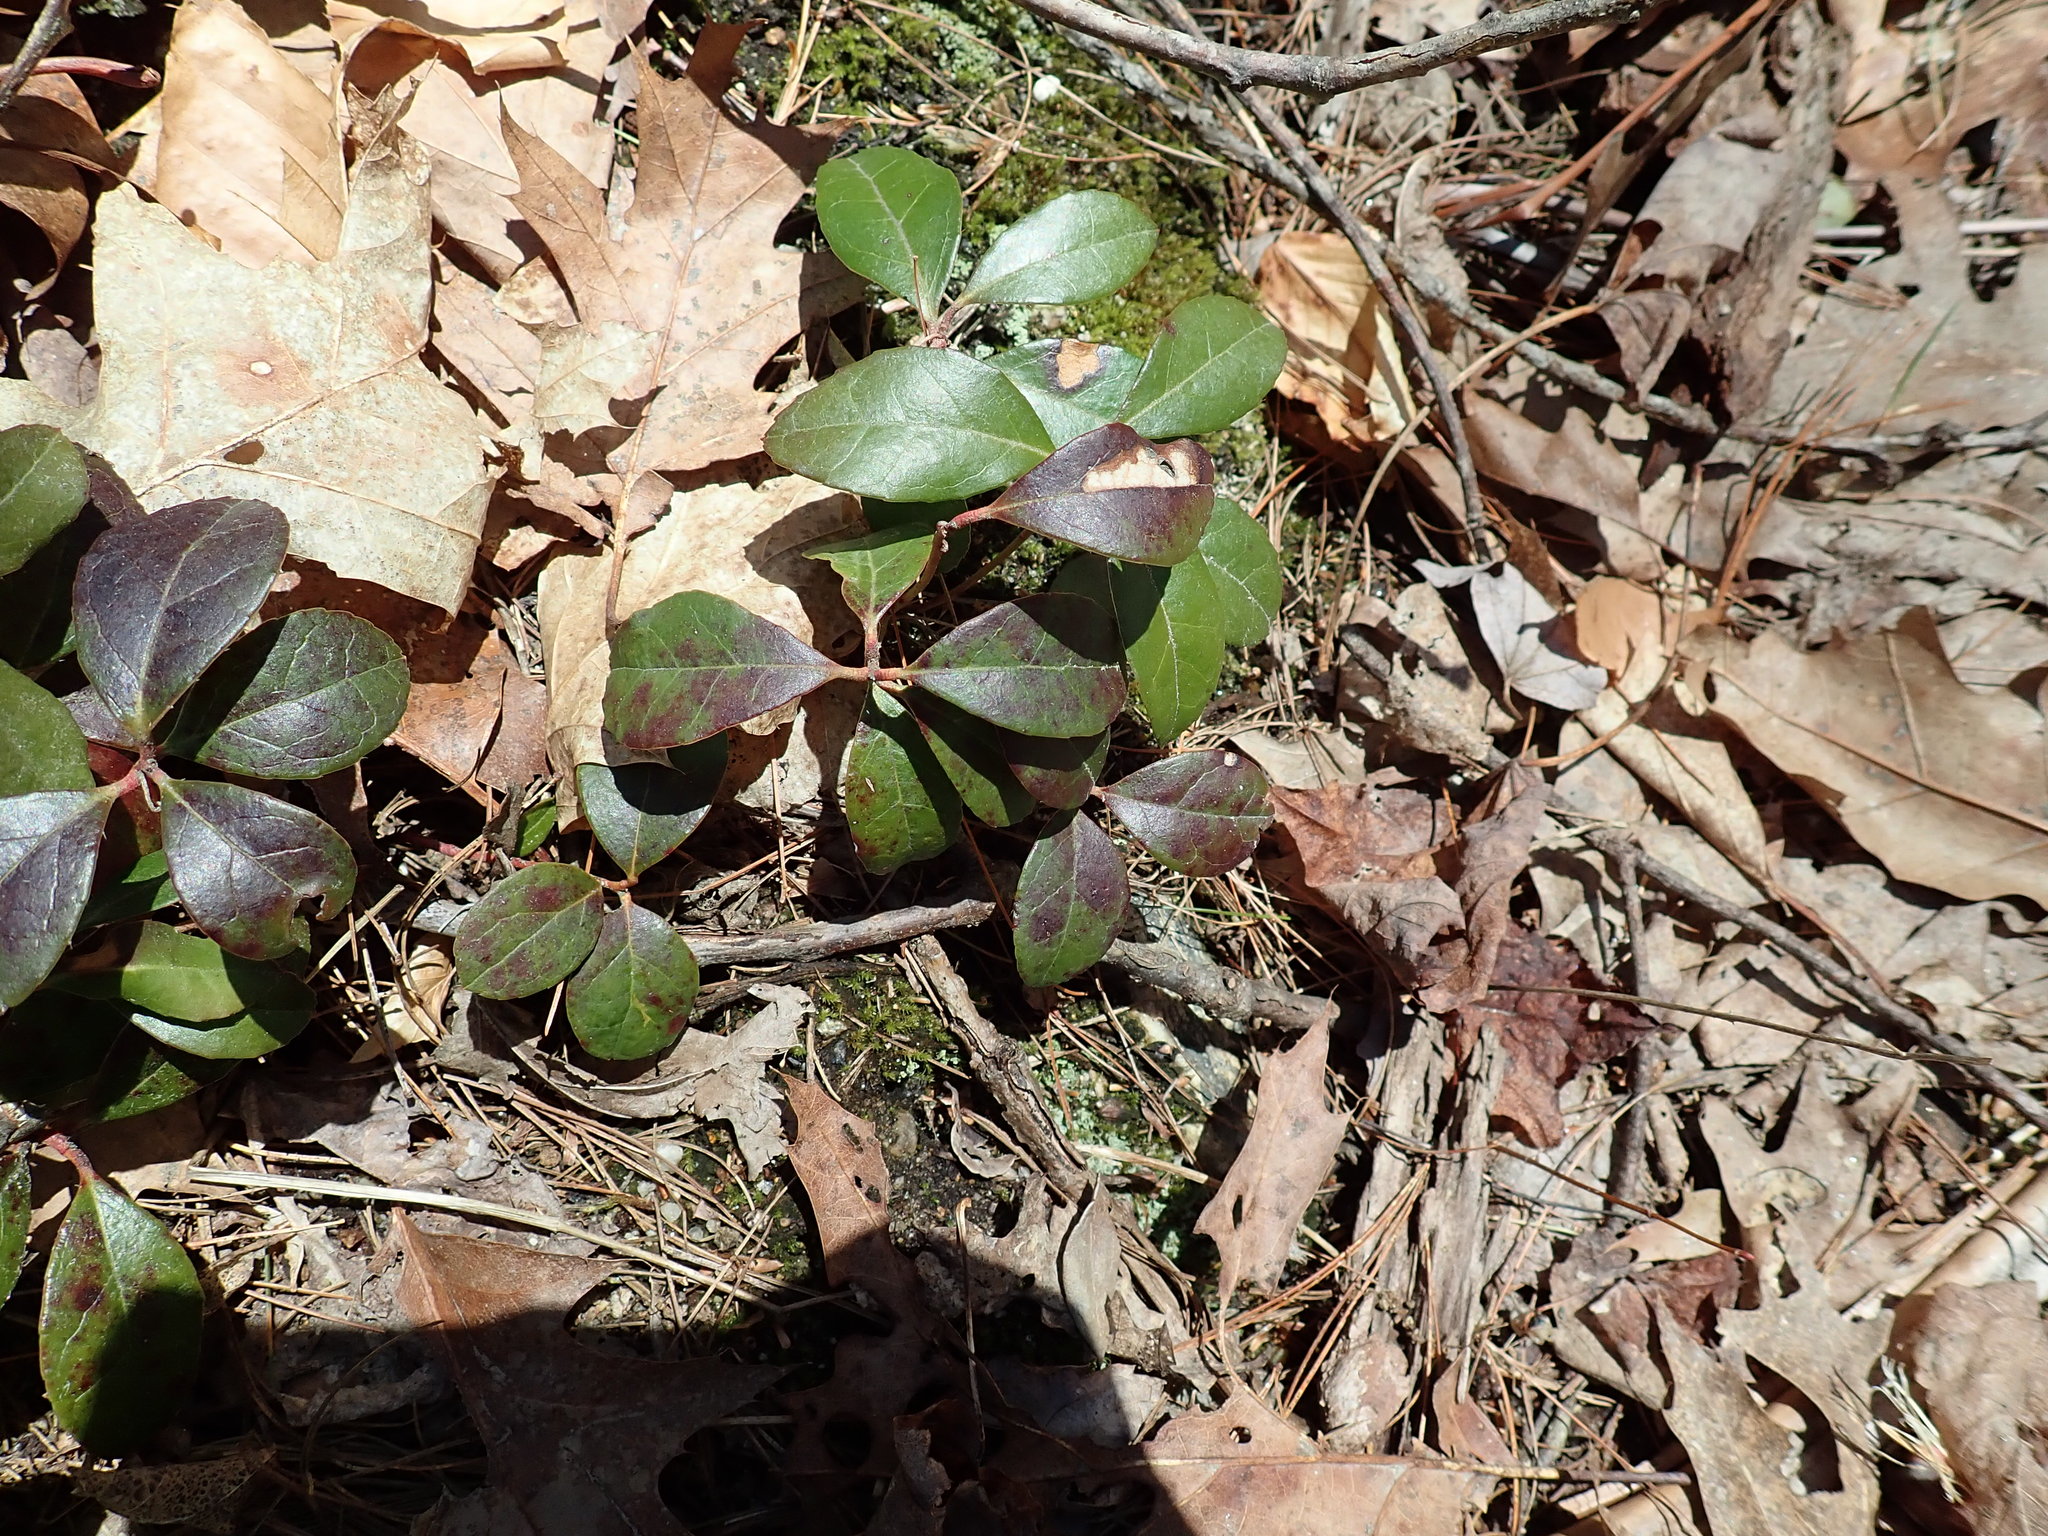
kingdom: Plantae
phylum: Tracheophyta
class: Magnoliopsida
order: Ericales
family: Ericaceae
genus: Gaultheria
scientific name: Gaultheria procumbens
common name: Checkerberry
